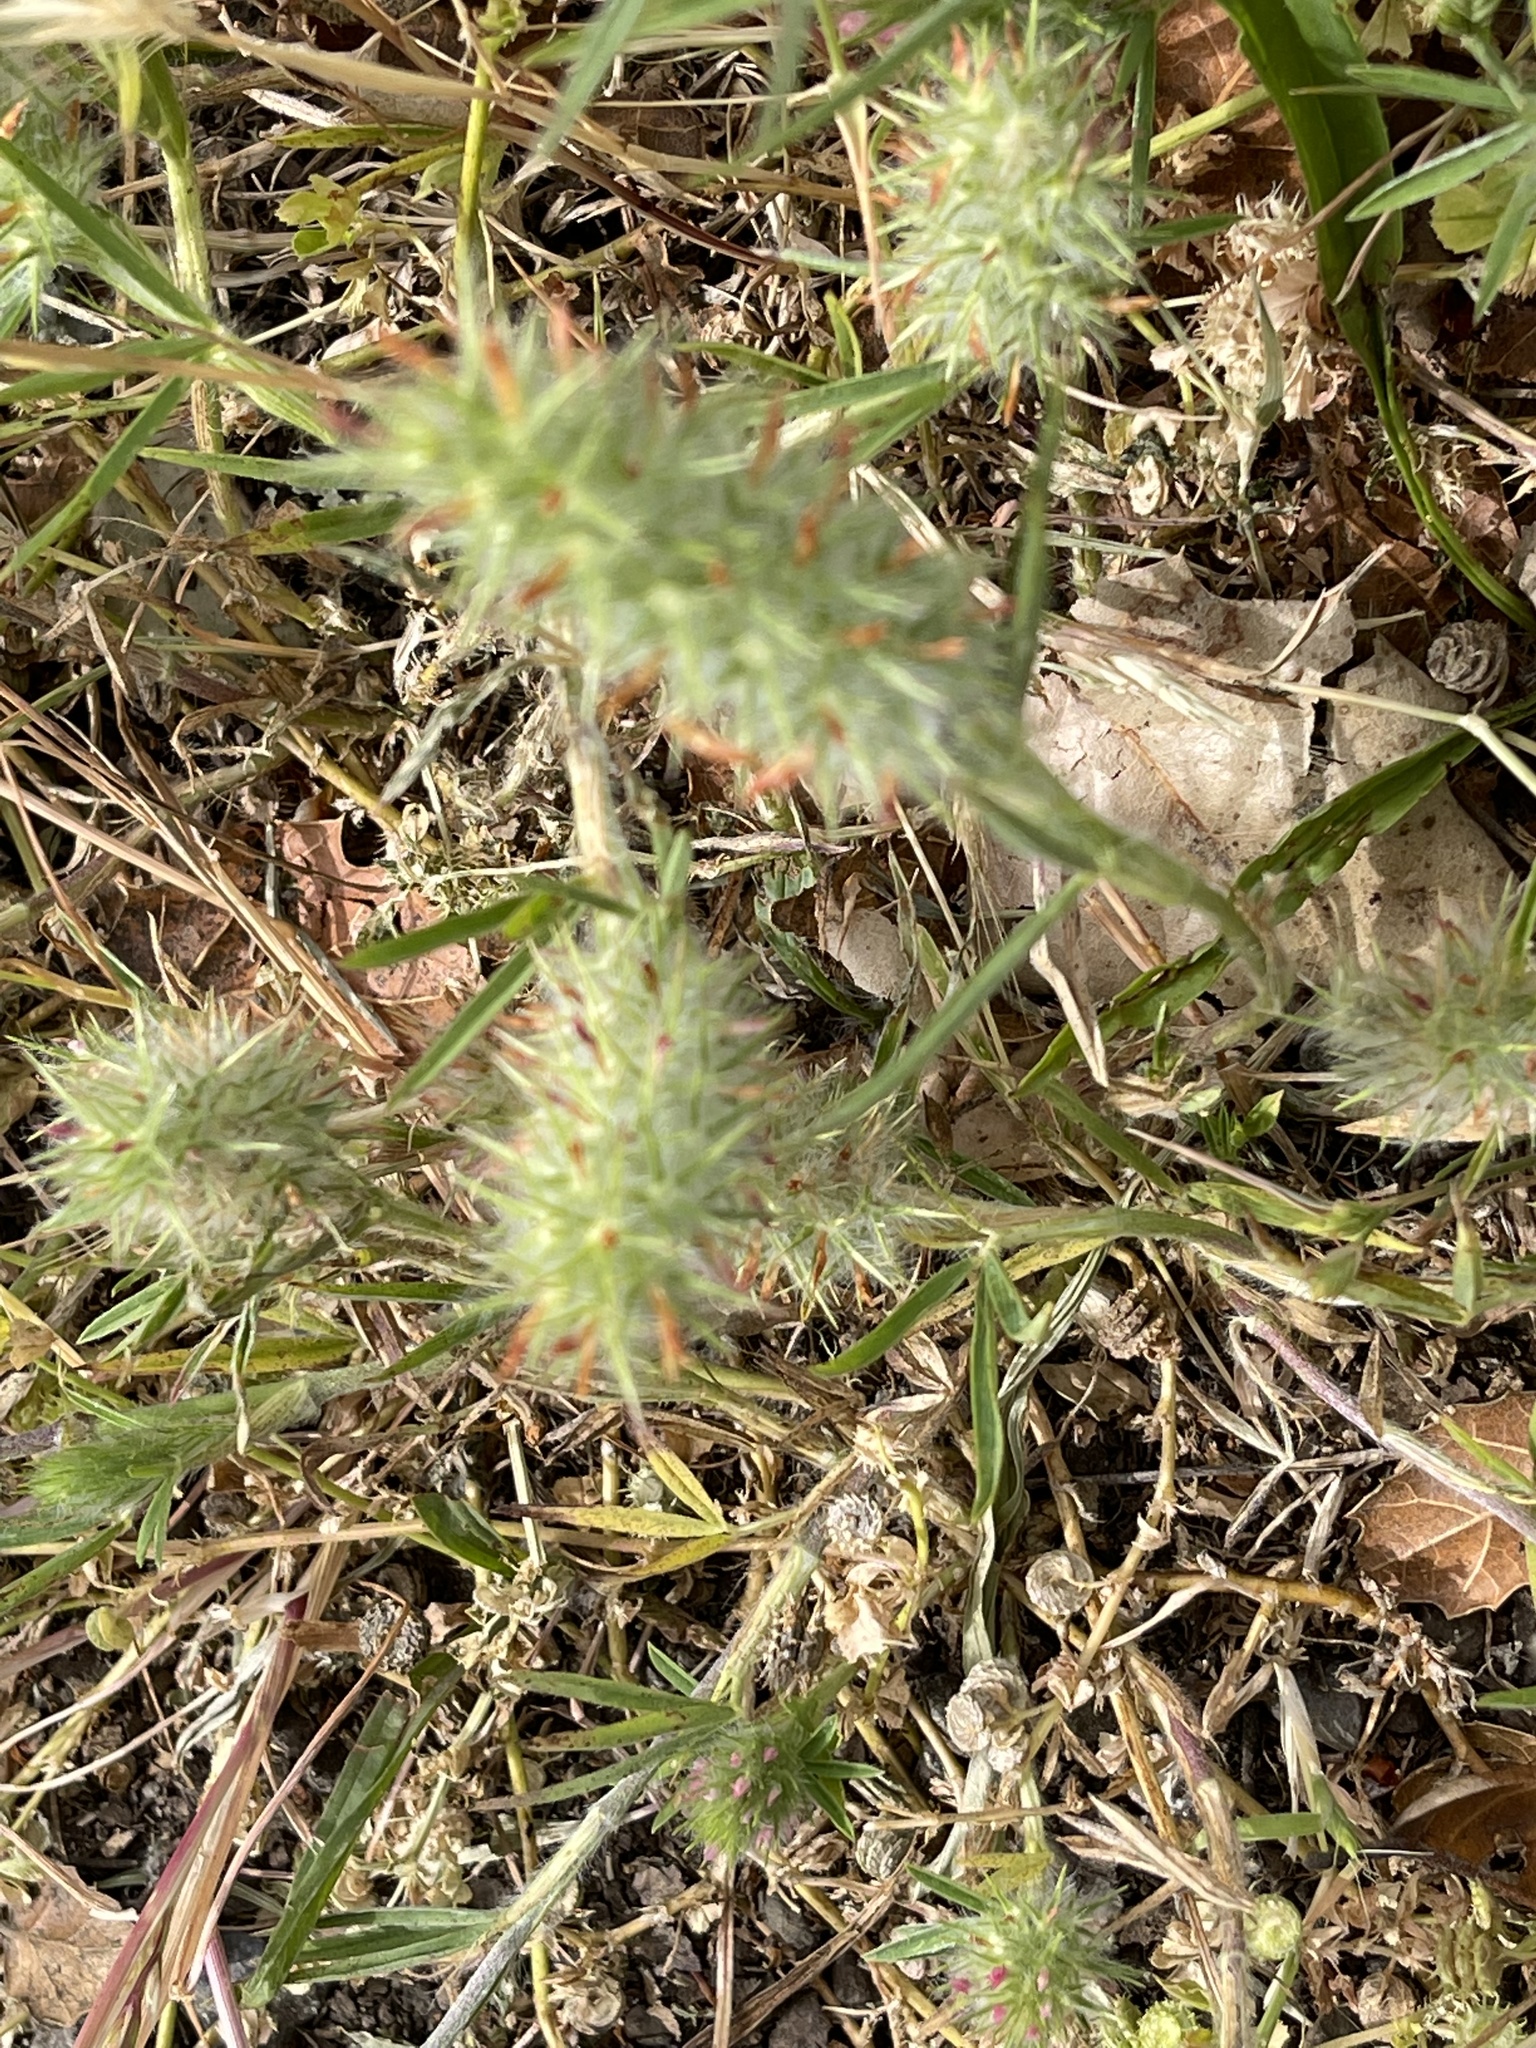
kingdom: Plantae
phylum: Tracheophyta
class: Magnoliopsida
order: Fabales
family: Fabaceae
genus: Trifolium
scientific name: Trifolium angustifolium
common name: Narrow clover
